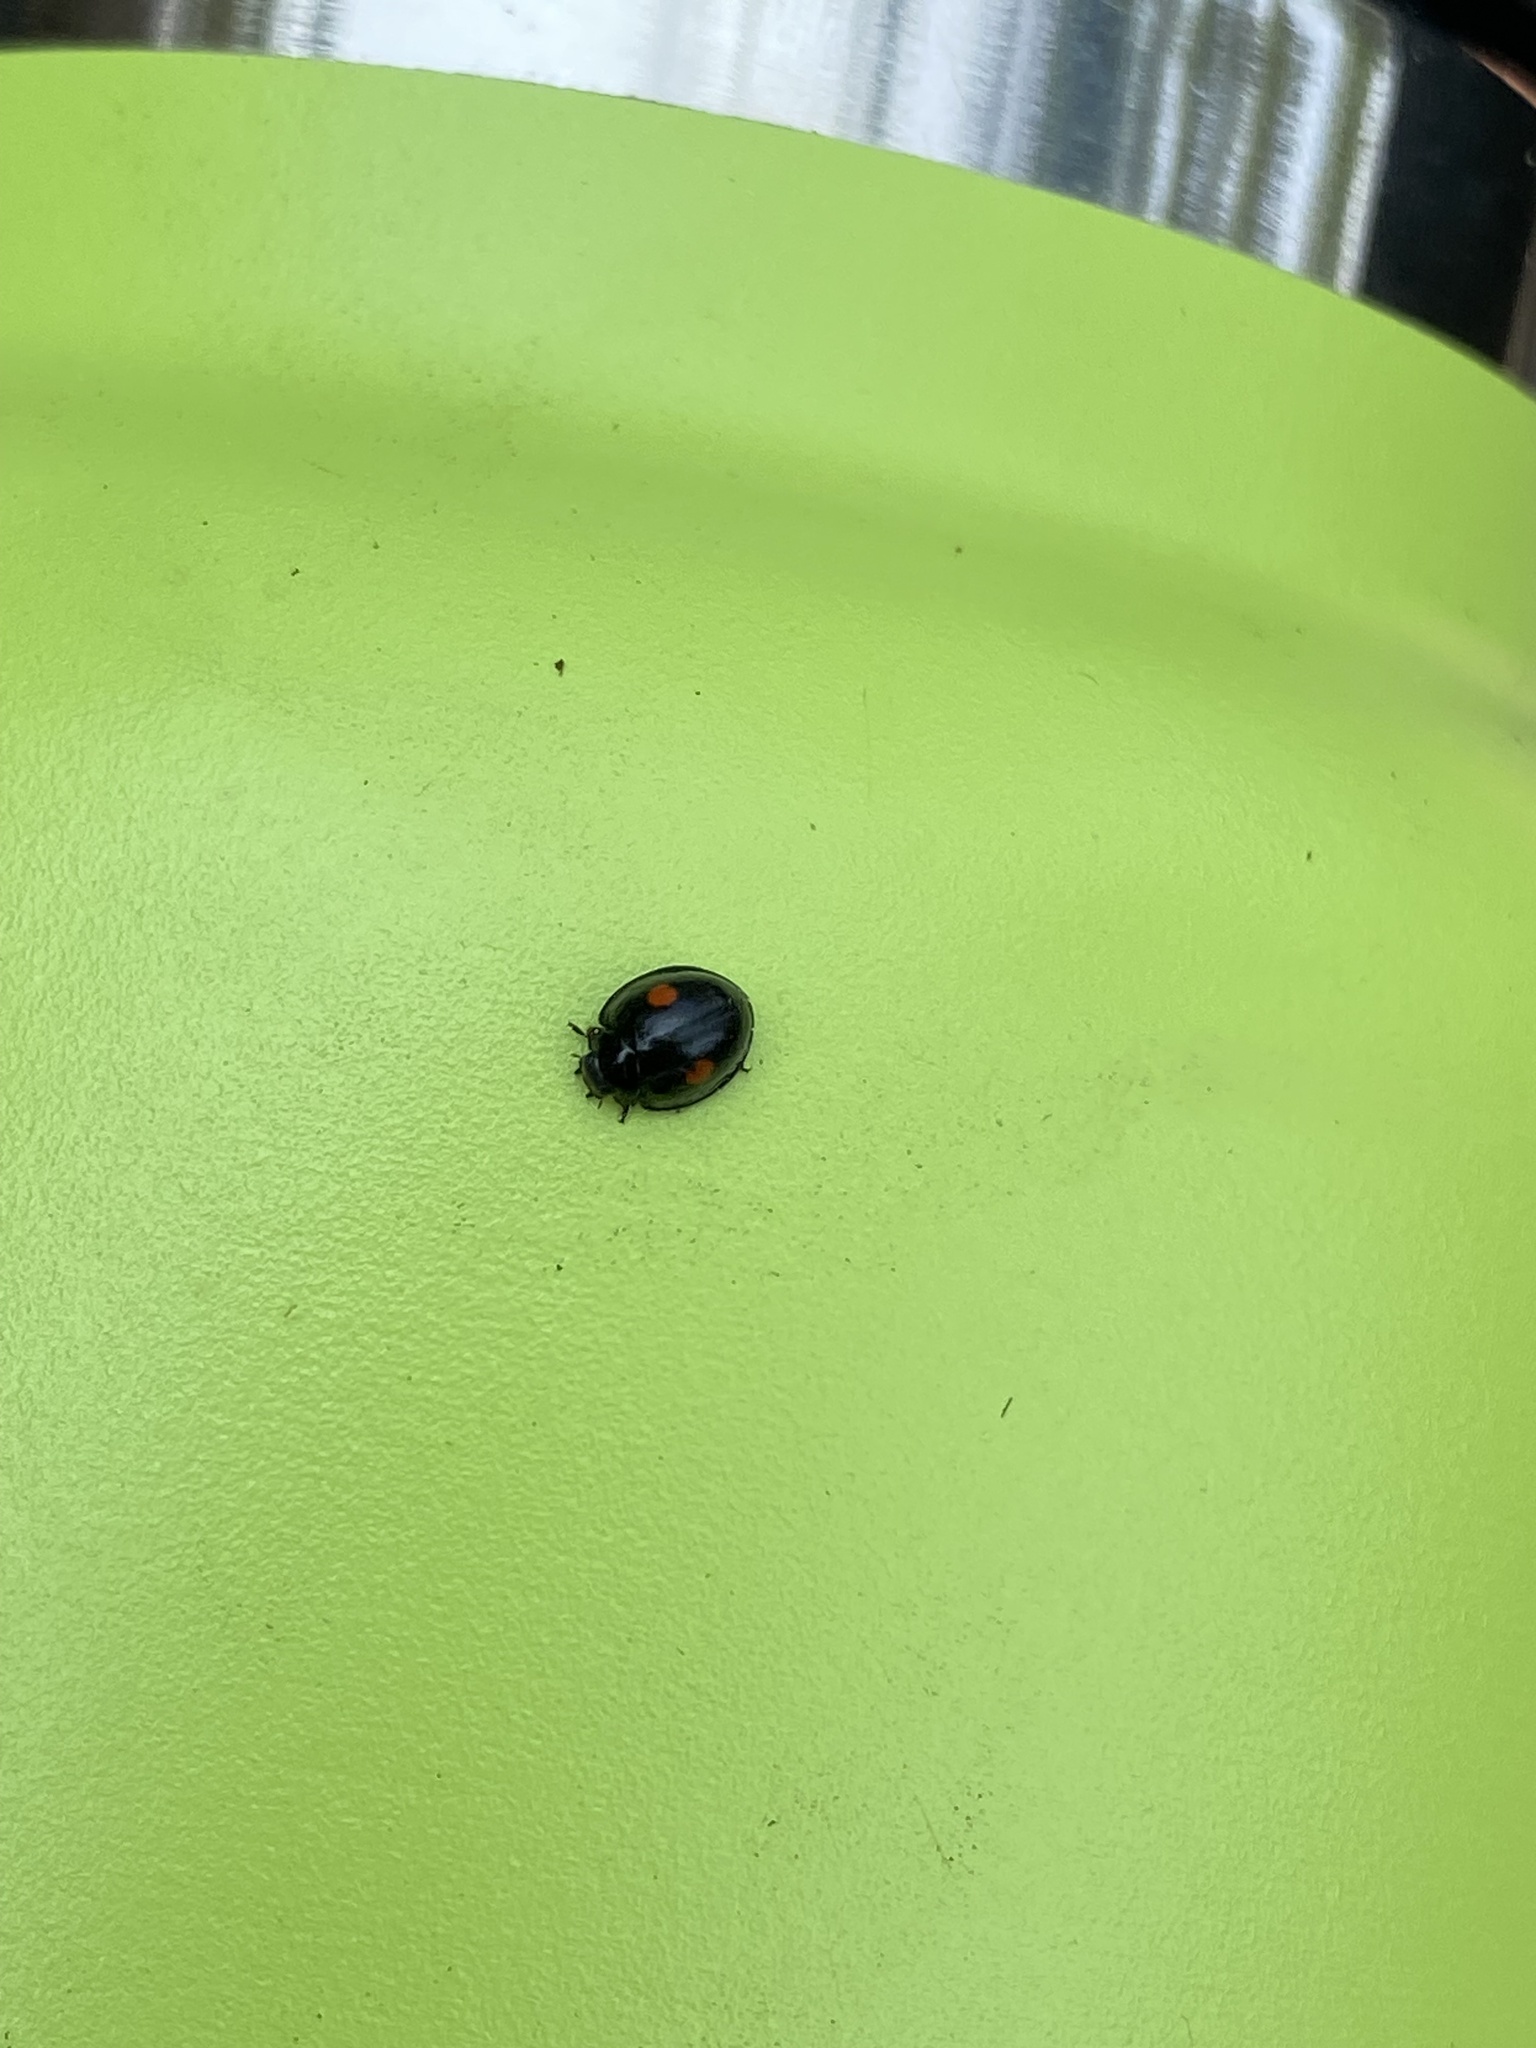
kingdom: Animalia
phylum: Arthropoda
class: Insecta
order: Coleoptera
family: Coccinellidae
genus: Chilocorus
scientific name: Chilocorus stigma
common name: Twicestabbed lady beetle
